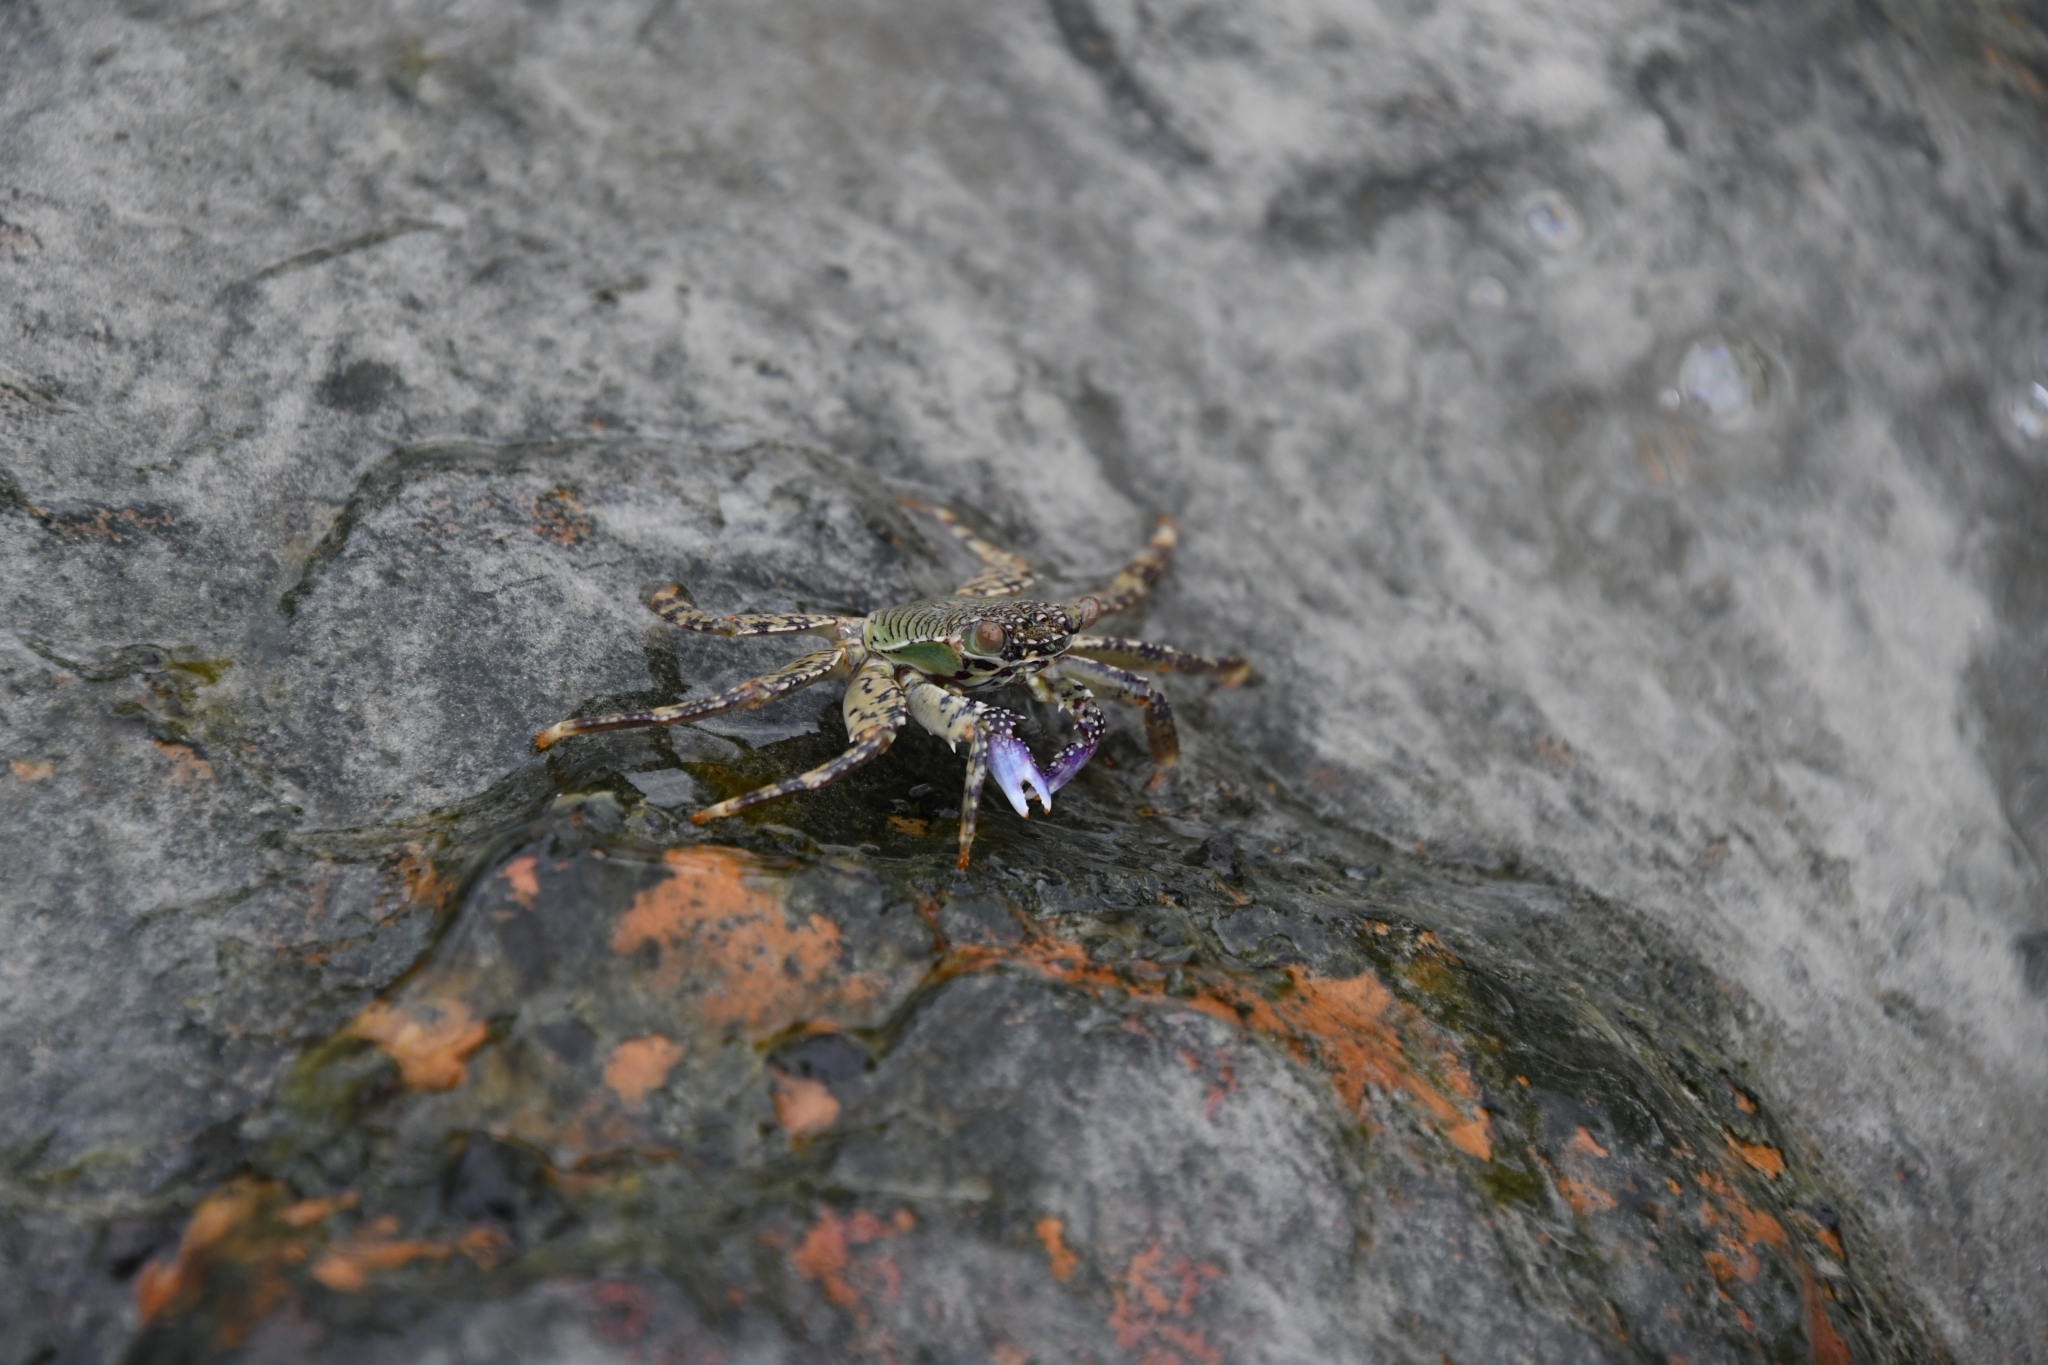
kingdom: Animalia
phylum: Arthropoda
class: Malacostraca
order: Decapoda
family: Grapsidae
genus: Grapsus
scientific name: Grapsus albolineatus
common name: Mottled lightfoot crab
